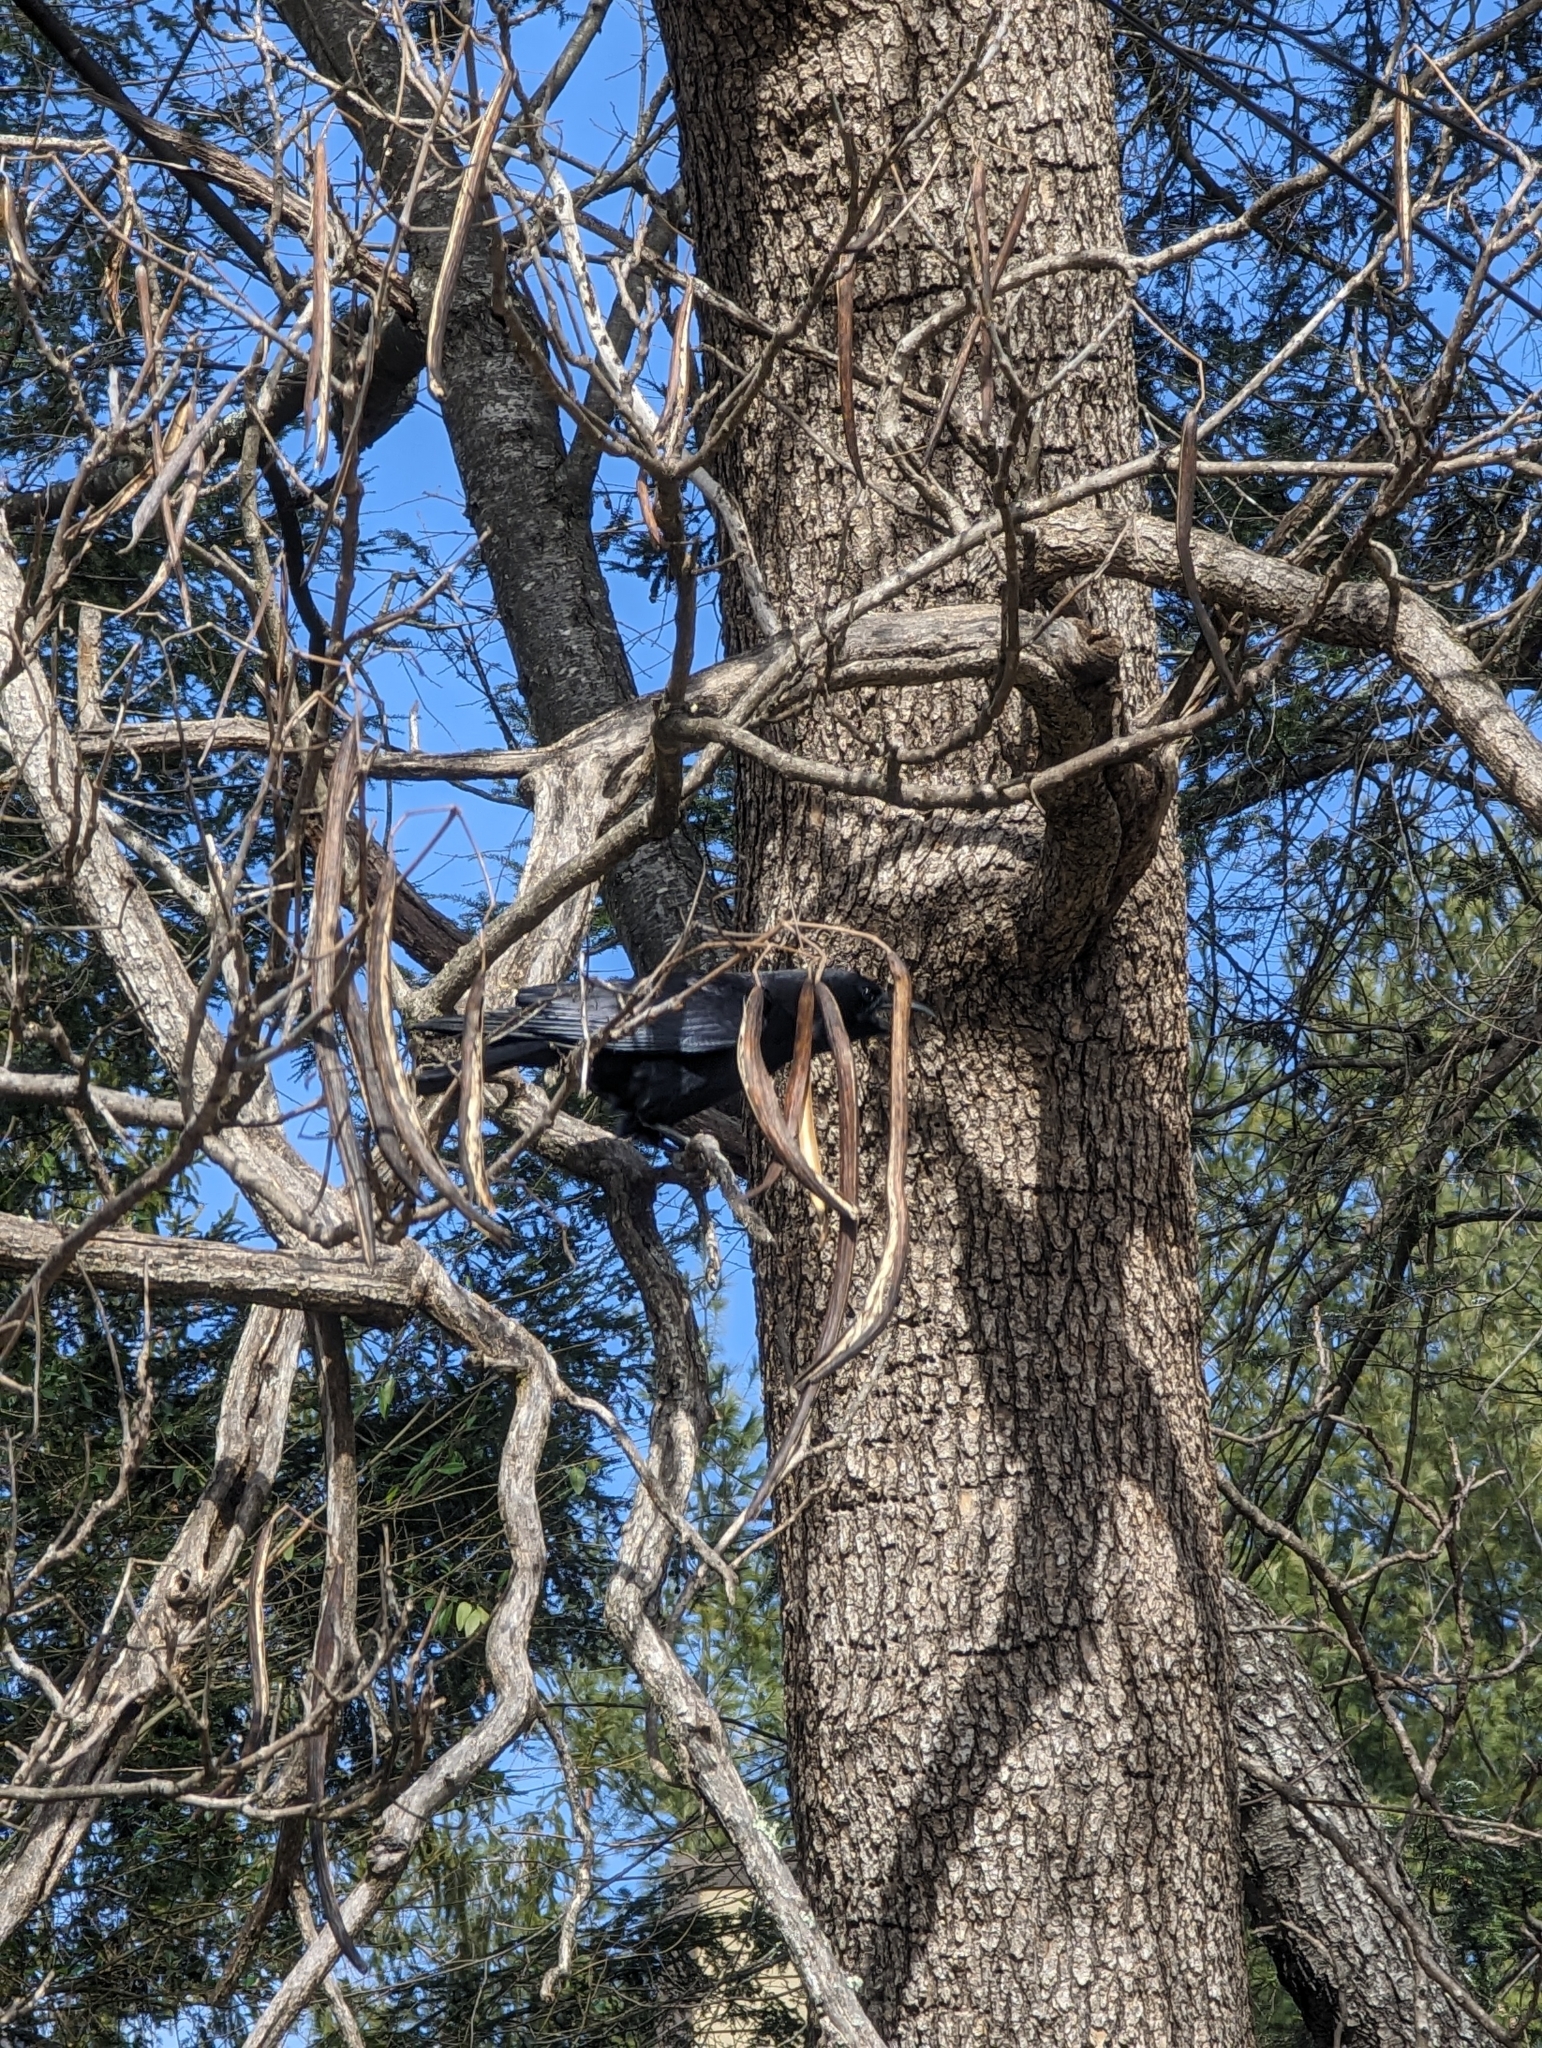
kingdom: Animalia
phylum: Chordata
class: Aves
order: Passeriformes
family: Corvidae
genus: Corvus
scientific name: Corvus brachyrhynchos
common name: American crow
